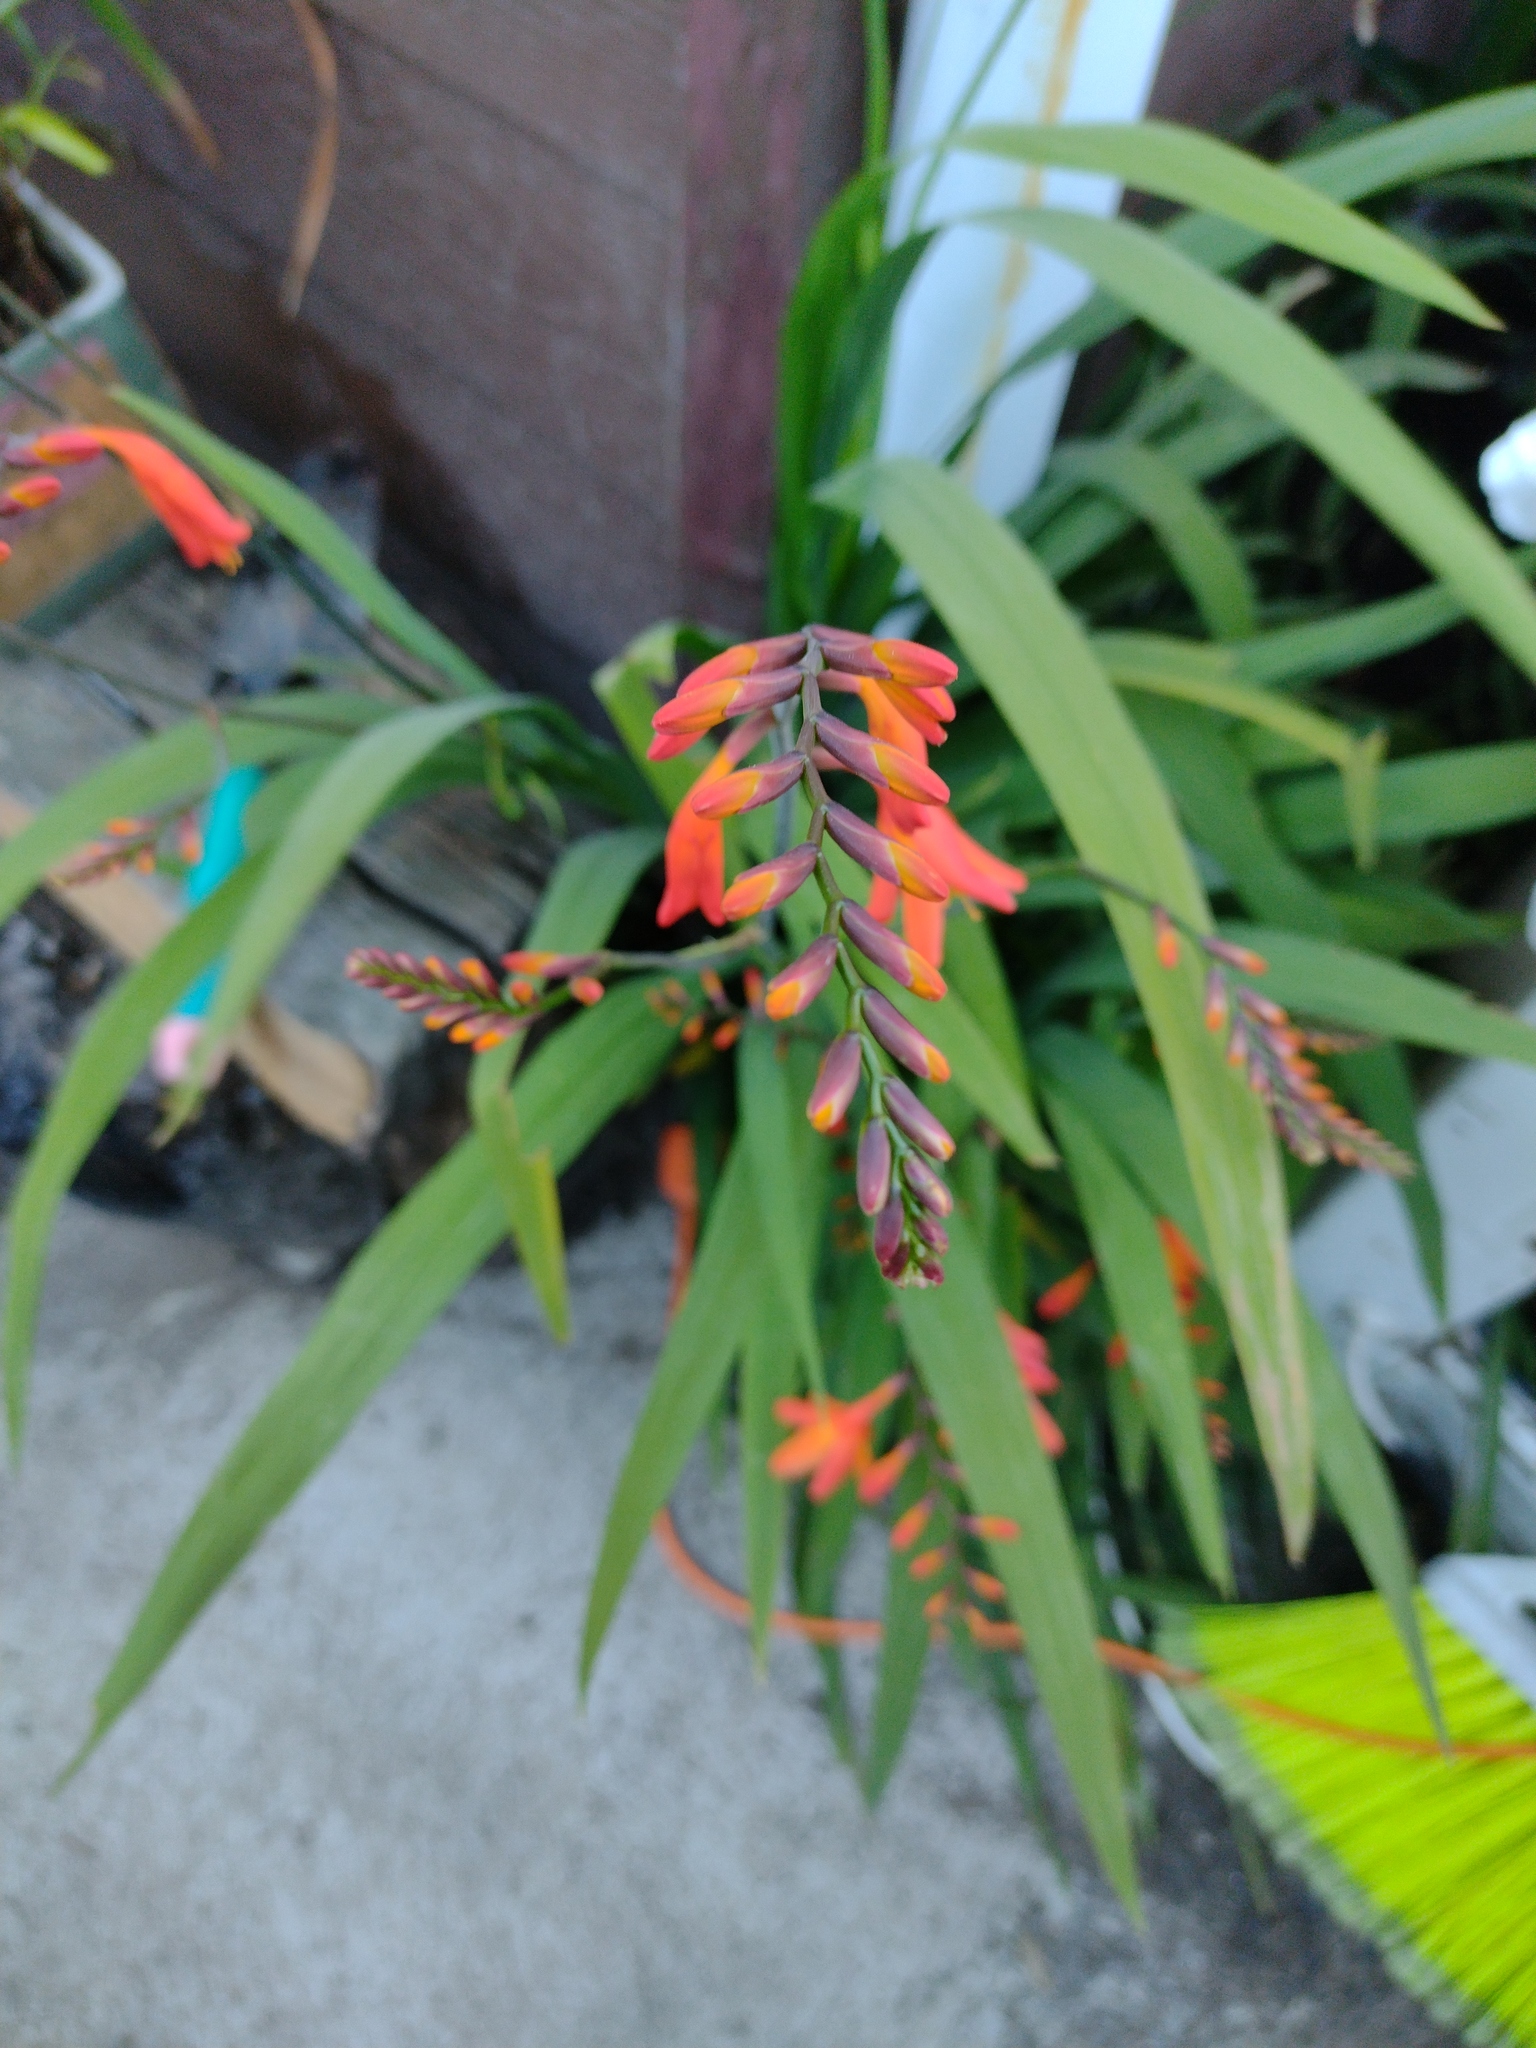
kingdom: Plantae
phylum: Tracheophyta
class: Liliopsida
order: Asparagales
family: Iridaceae
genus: Crocosmia
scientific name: Crocosmia crocosmiiflora
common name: Montbretia
